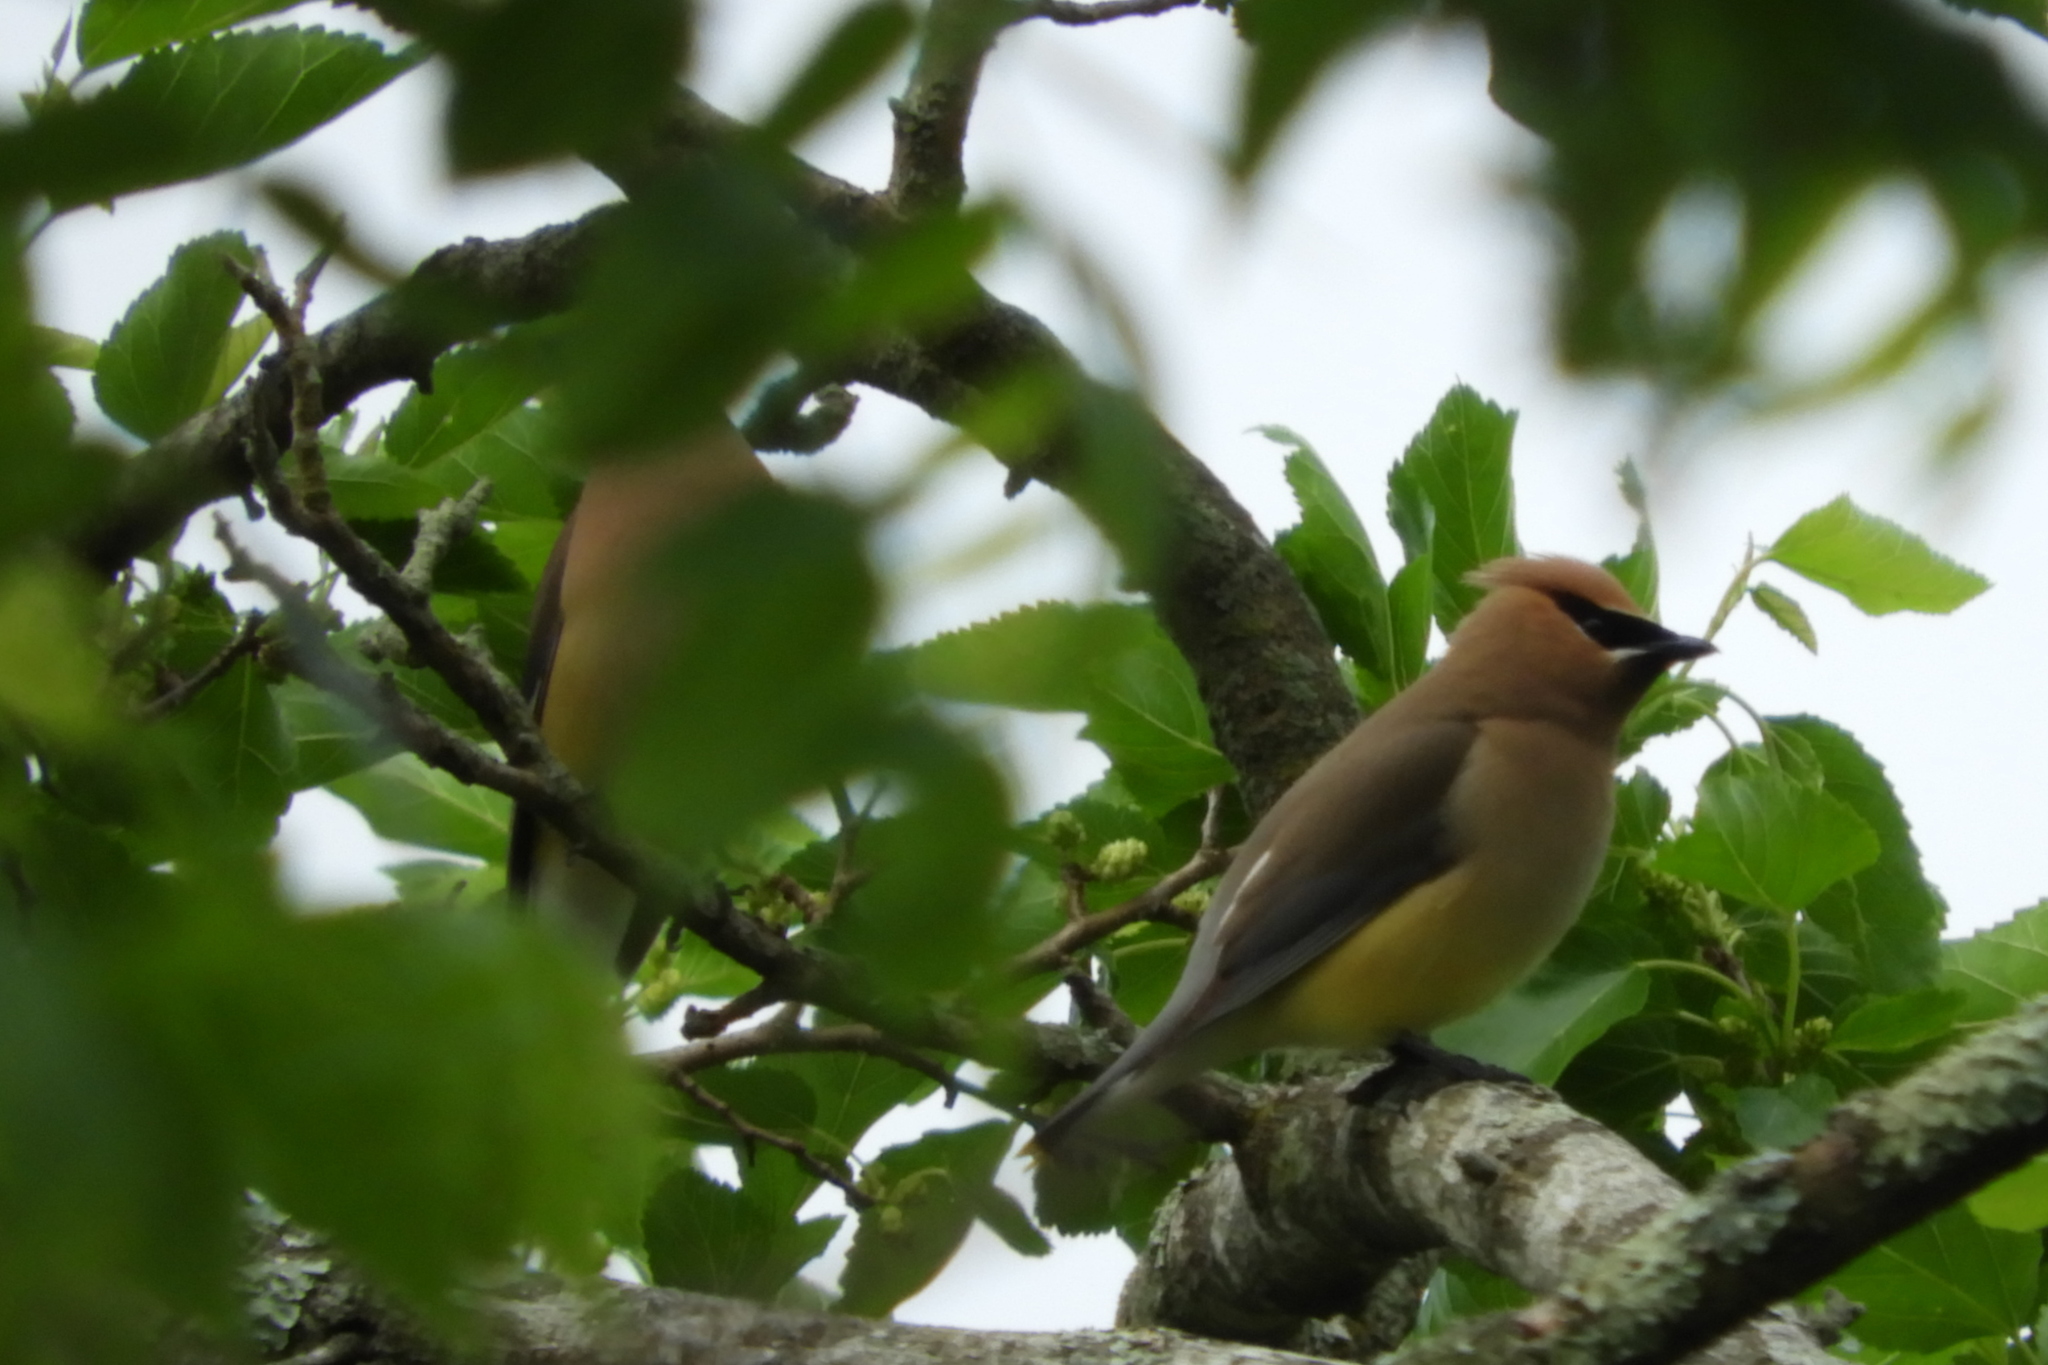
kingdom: Animalia
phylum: Chordata
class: Aves
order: Passeriformes
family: Bombycillidae
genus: Bombycilla
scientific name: Bombycilla cedrorum
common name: Cedar waxwing
